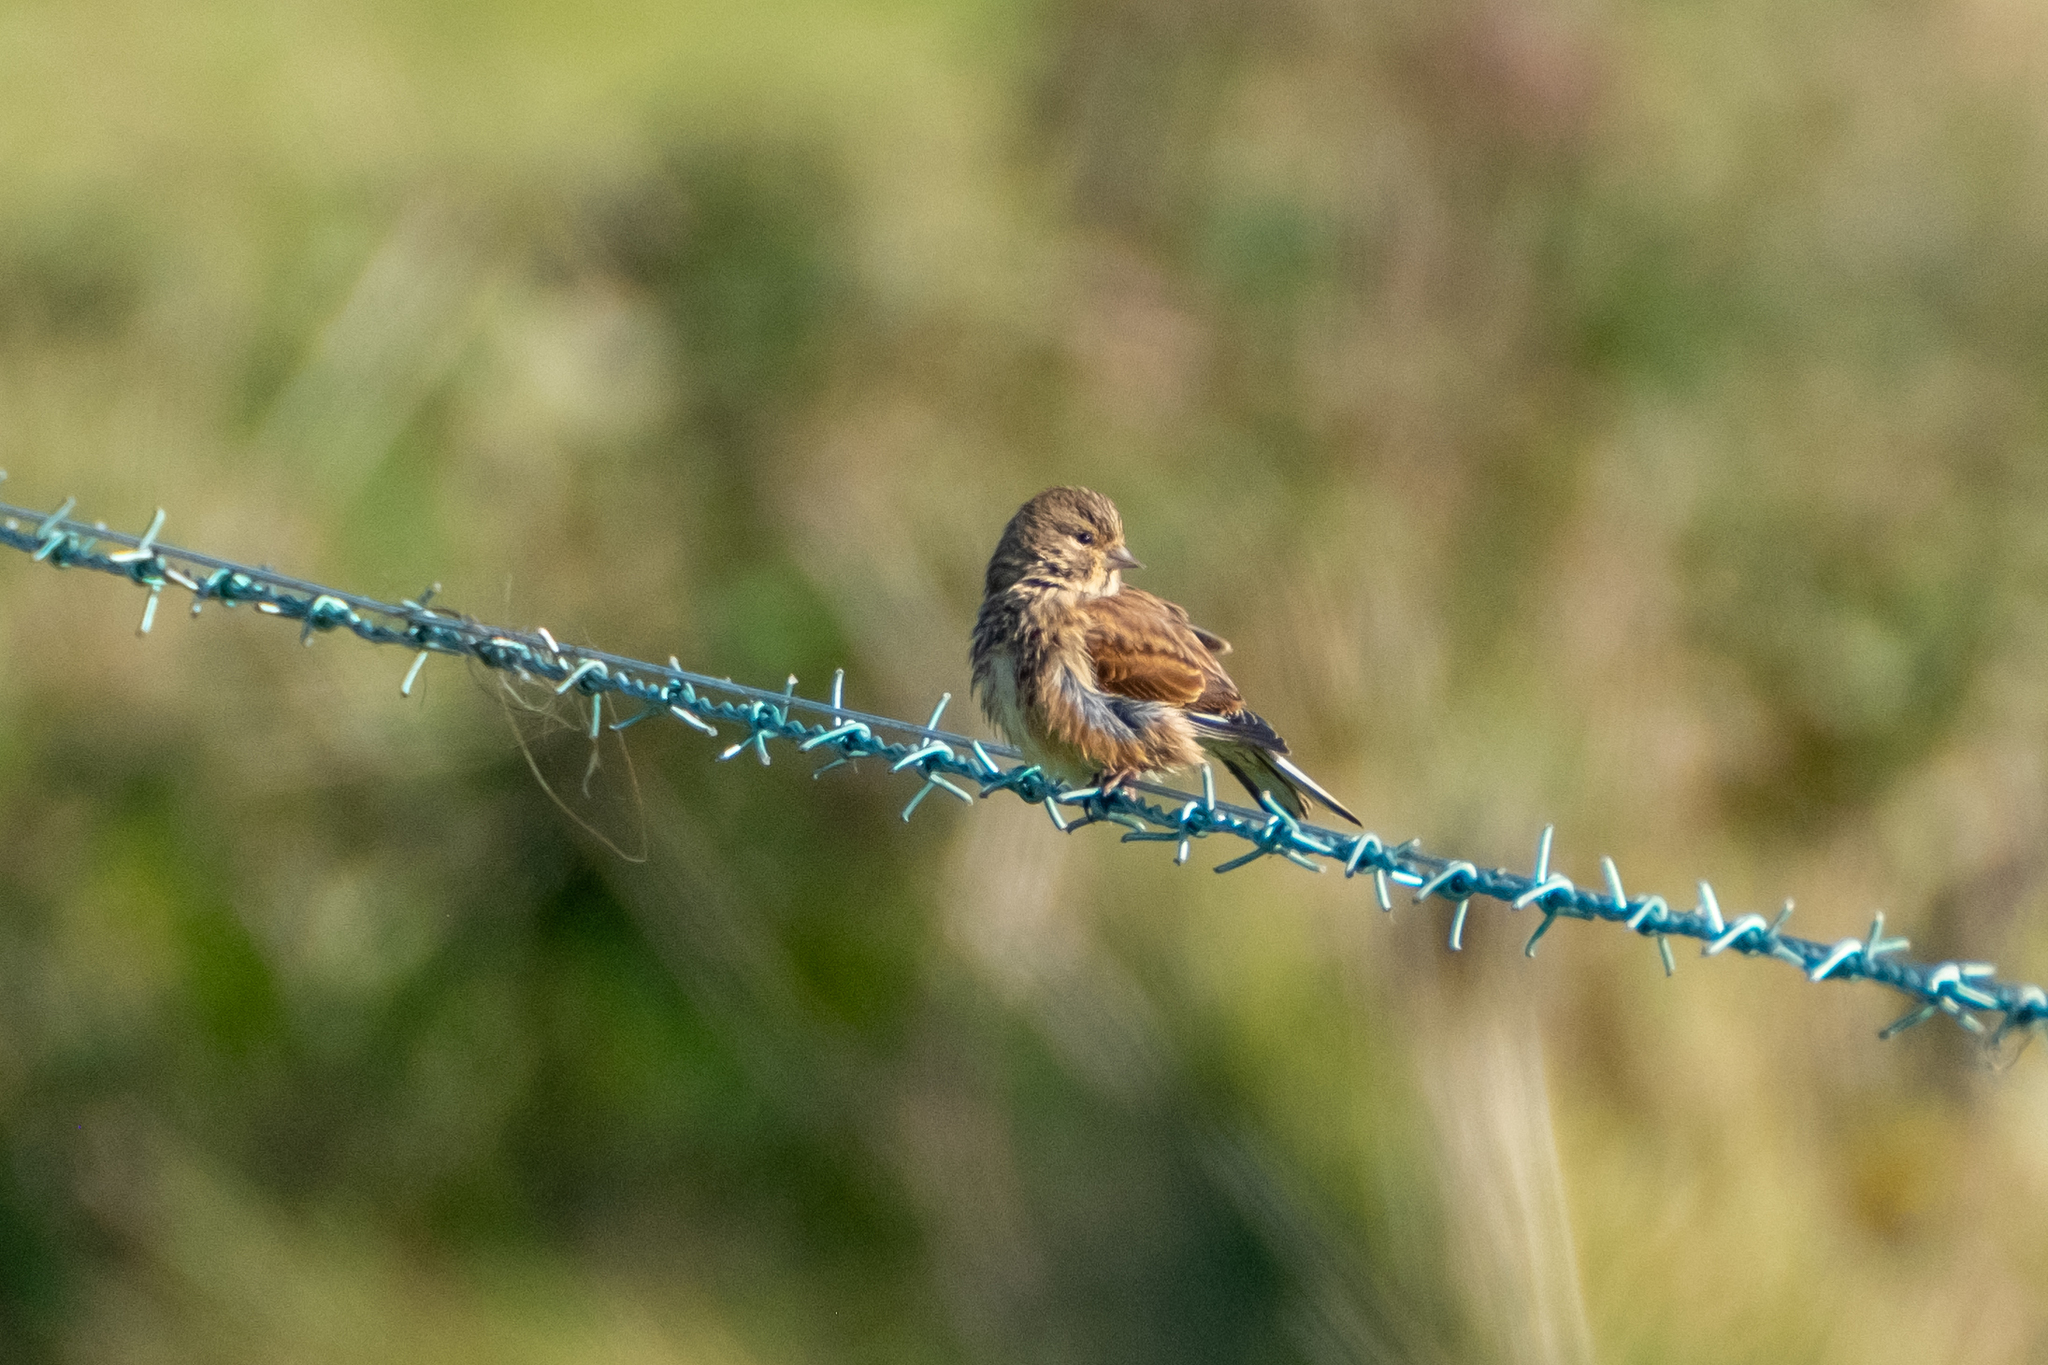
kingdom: Animalia
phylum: Chordata
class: Aves
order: Passeriformes
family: Fringillidae
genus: Linaria
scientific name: Linaria cannabina
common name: Common linnet
